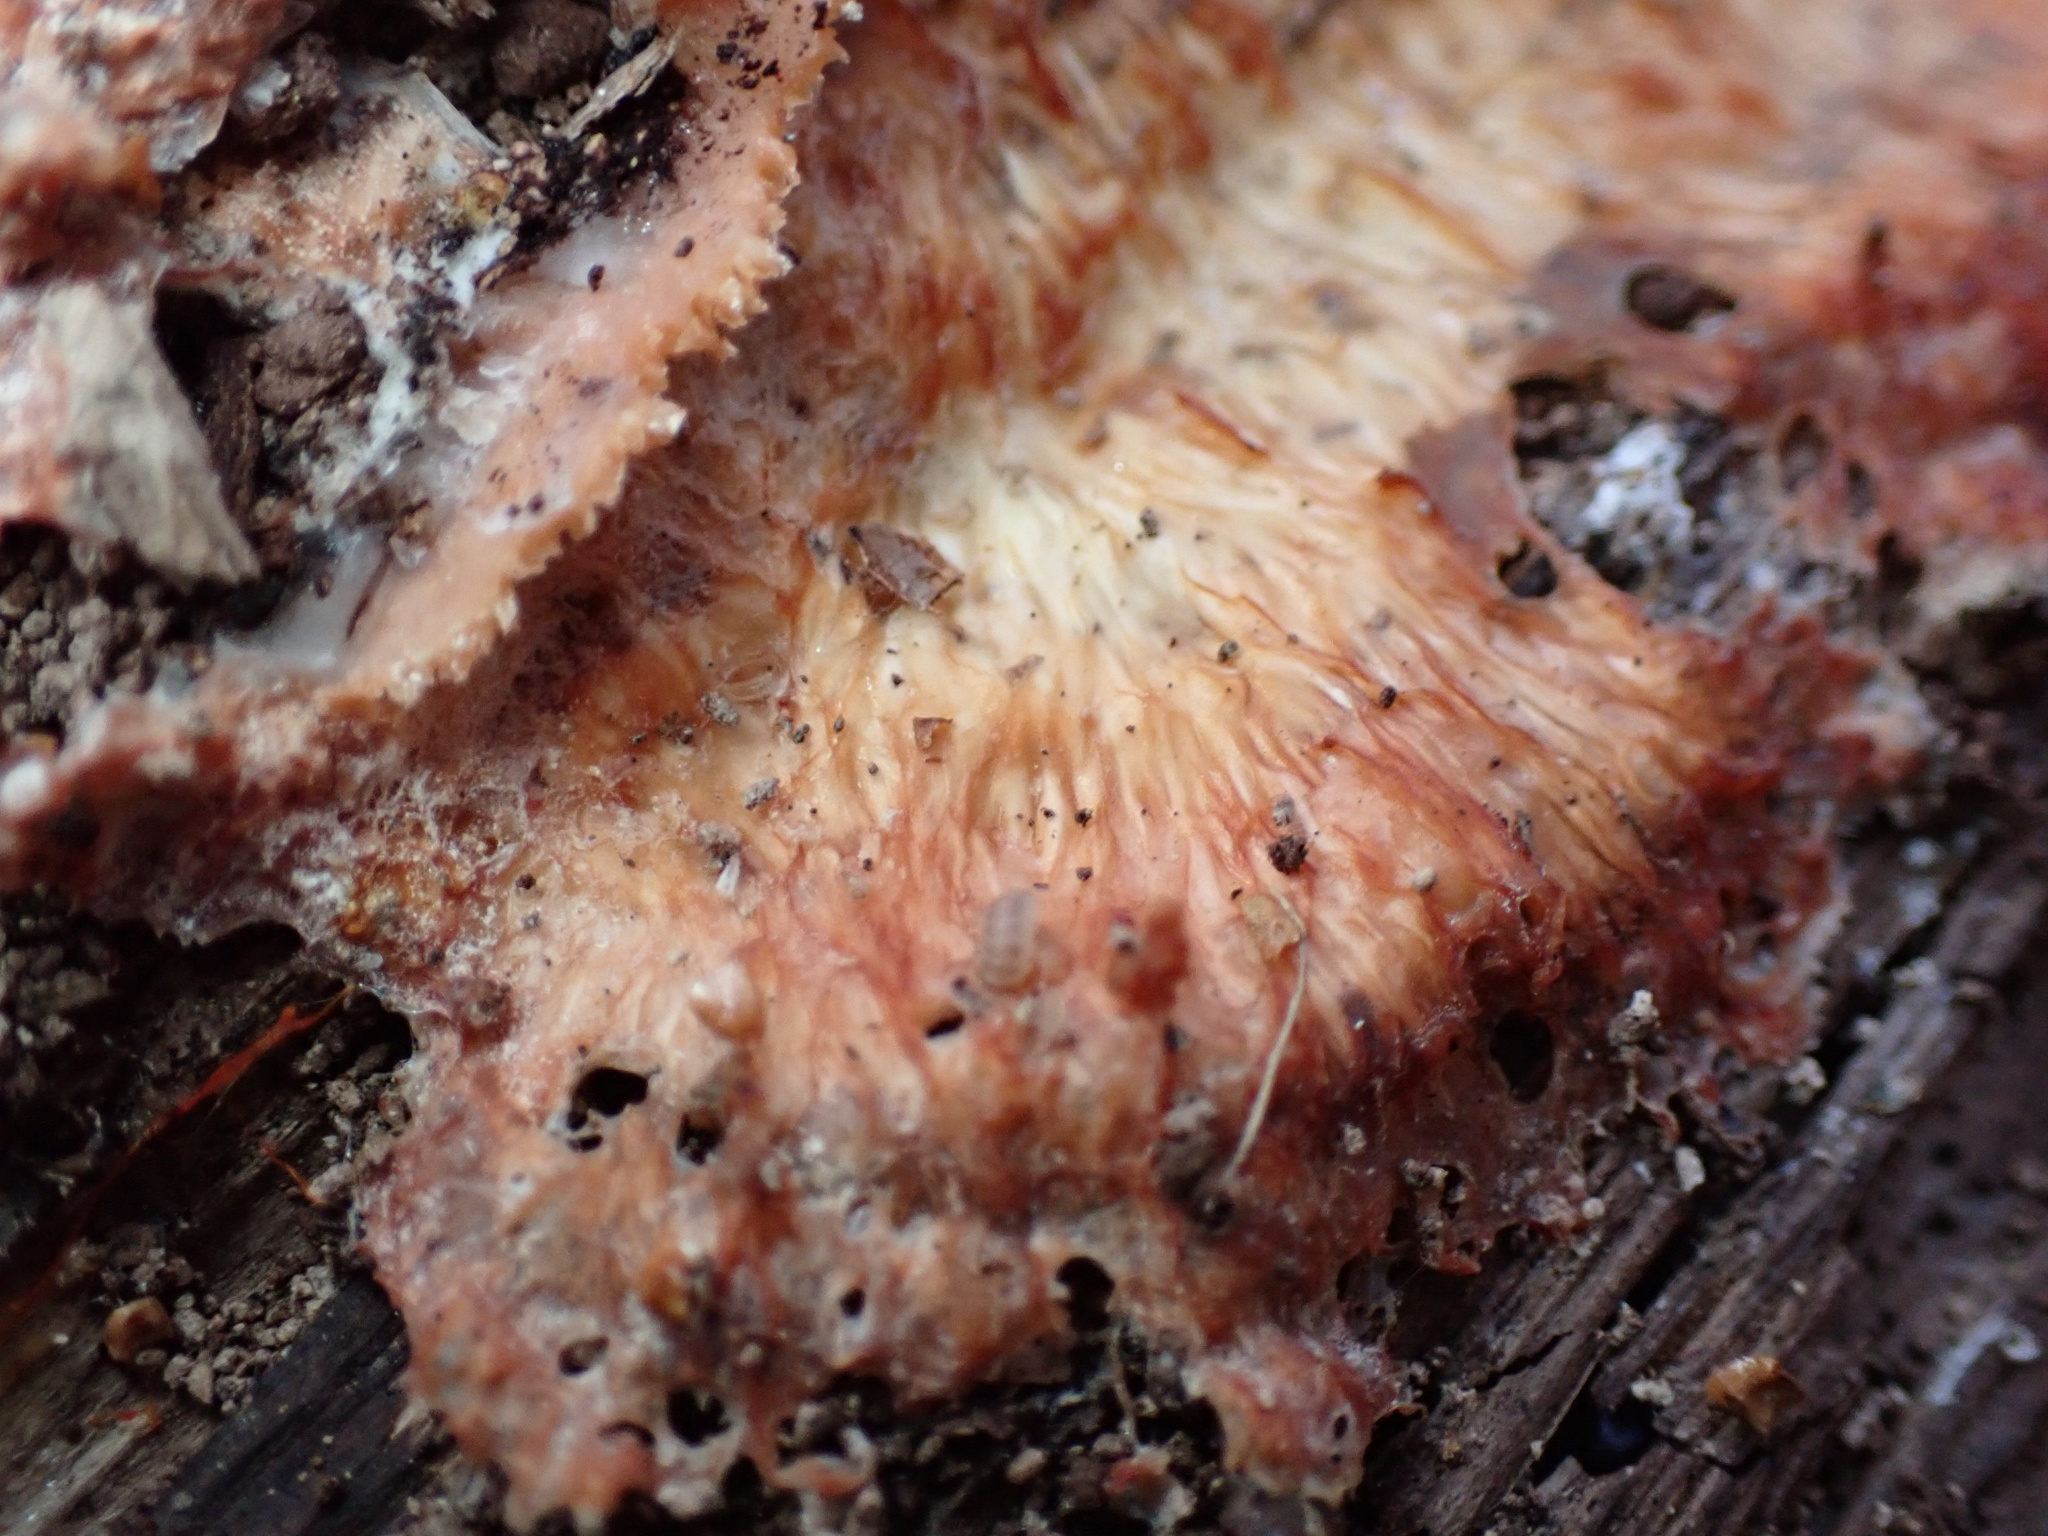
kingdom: Fungi
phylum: Basidiomycota
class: Agaricomycetes
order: Polyporales
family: Meruliaceae
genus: Phlebia
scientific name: Phlebia tremellosa
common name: Jelly rot
